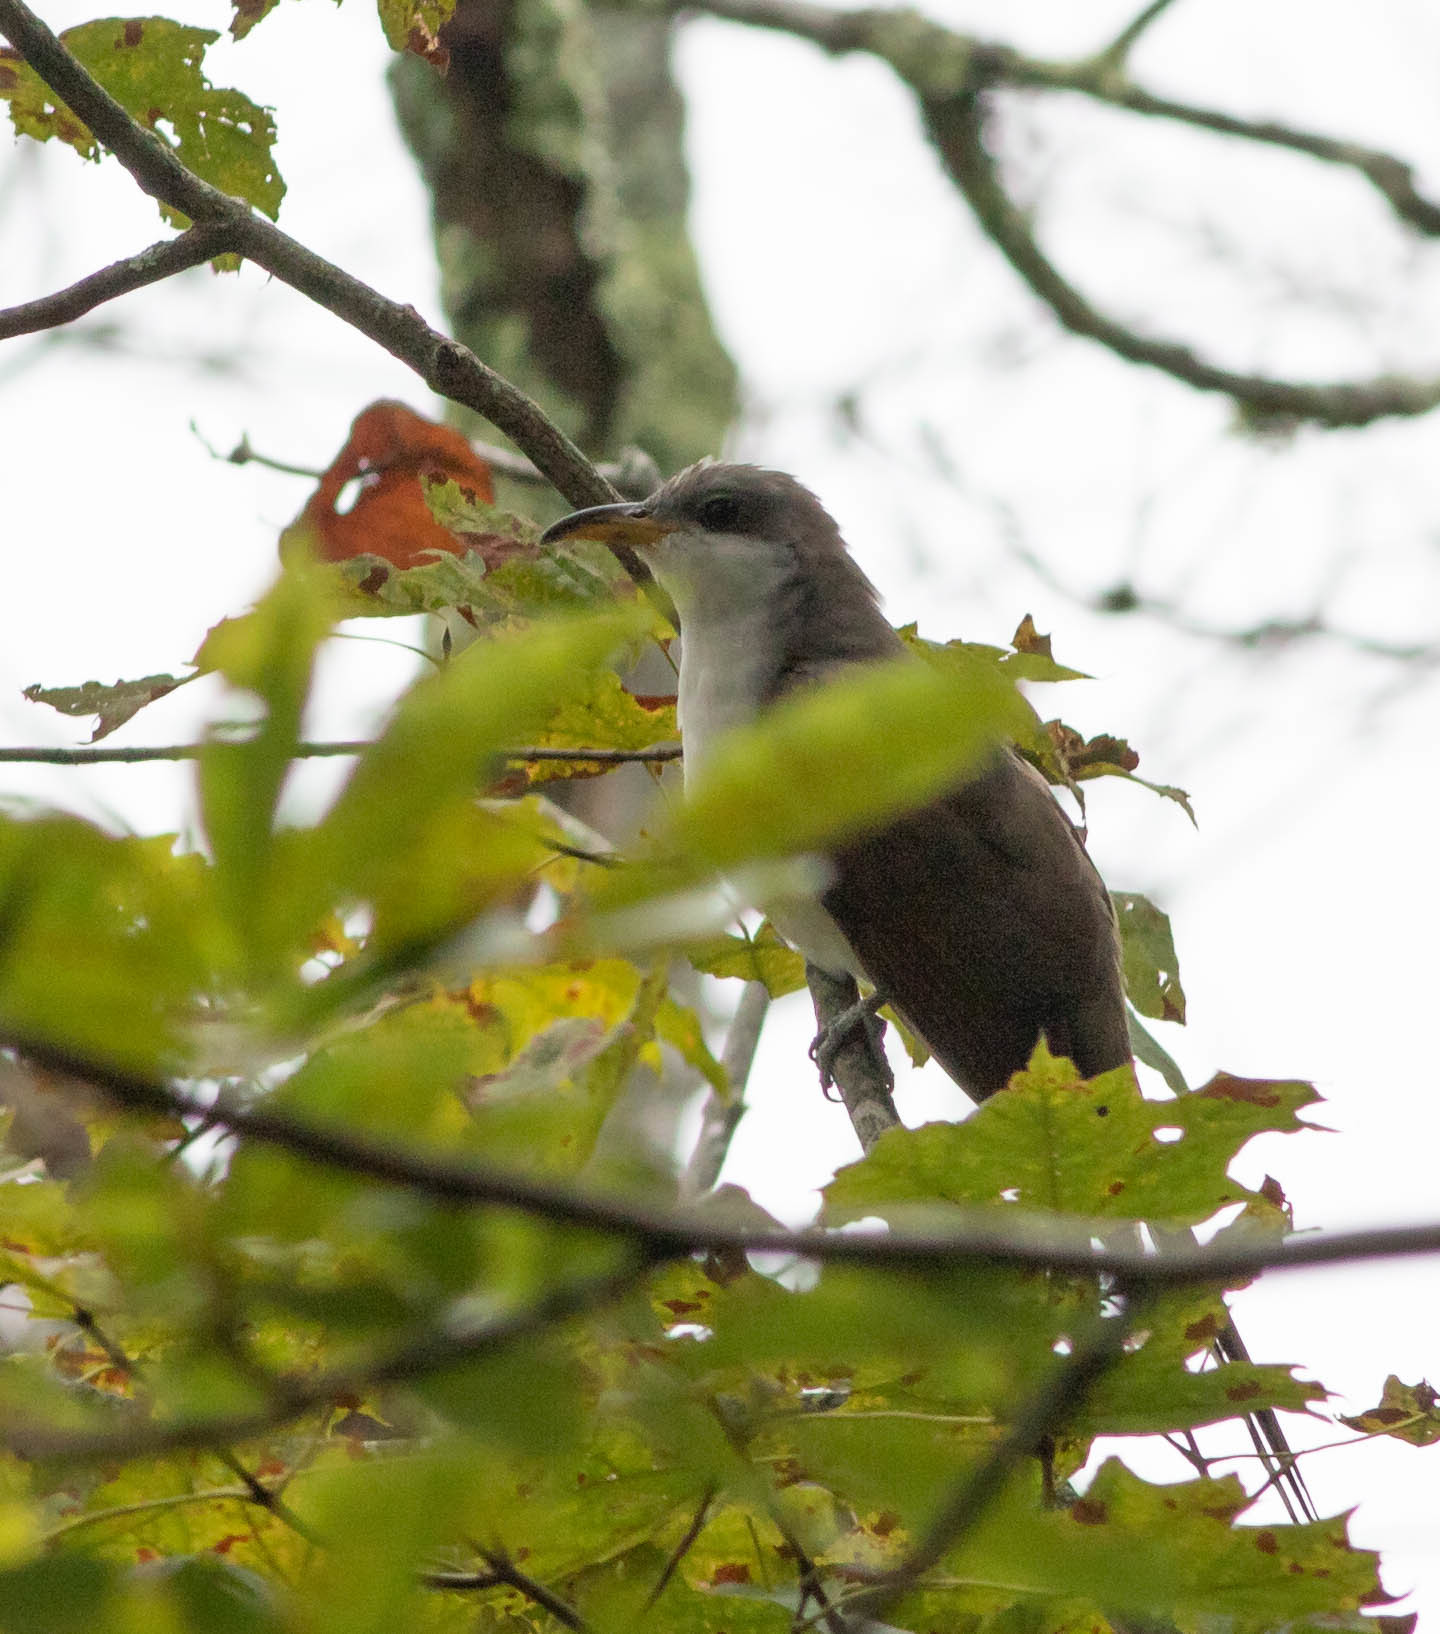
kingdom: Animalia
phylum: Chordata
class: Aves
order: Cuculiformes
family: Cuculidae
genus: Coccyzus
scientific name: Coccyzus americanus
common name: Yellow-billed cuckoo
